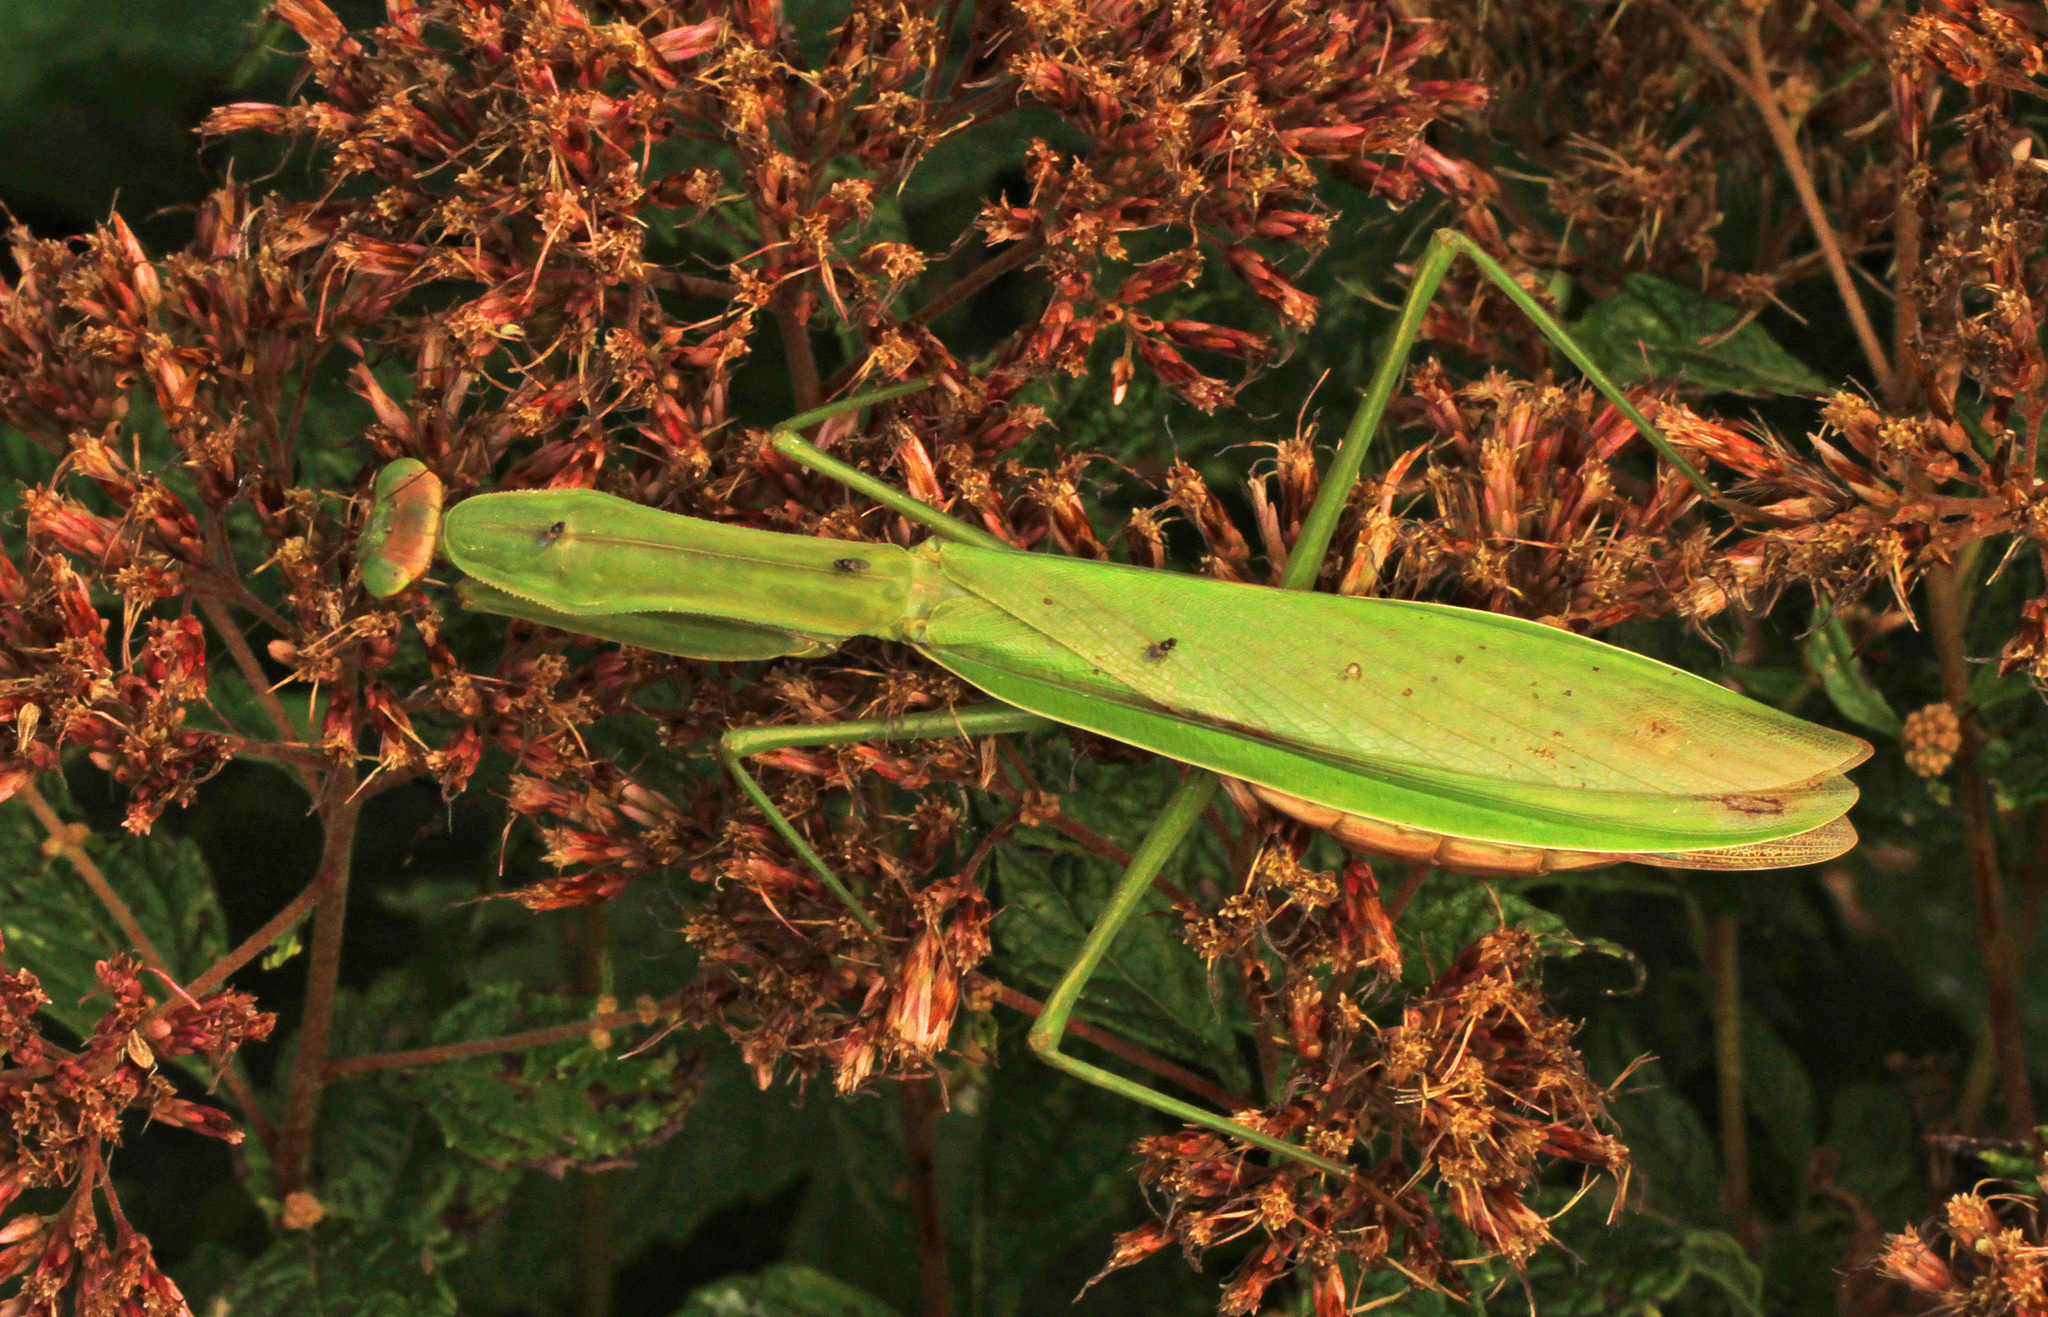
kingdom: Animalia
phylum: Arthropoda
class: Insecta
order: Mantodea
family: Mantidae
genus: Tenodera
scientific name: Tenodera sinensis
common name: Chinese mantis
